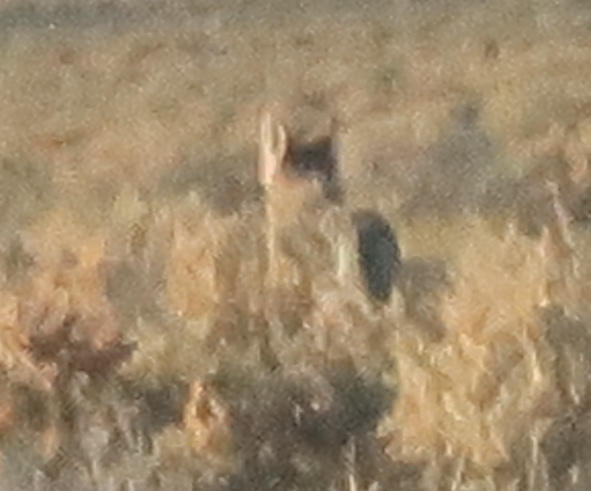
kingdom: Animalia
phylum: Chordata
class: Mammalia
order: Carnivora
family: Canidae
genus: Canis
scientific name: Canis latrans
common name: Coyote
